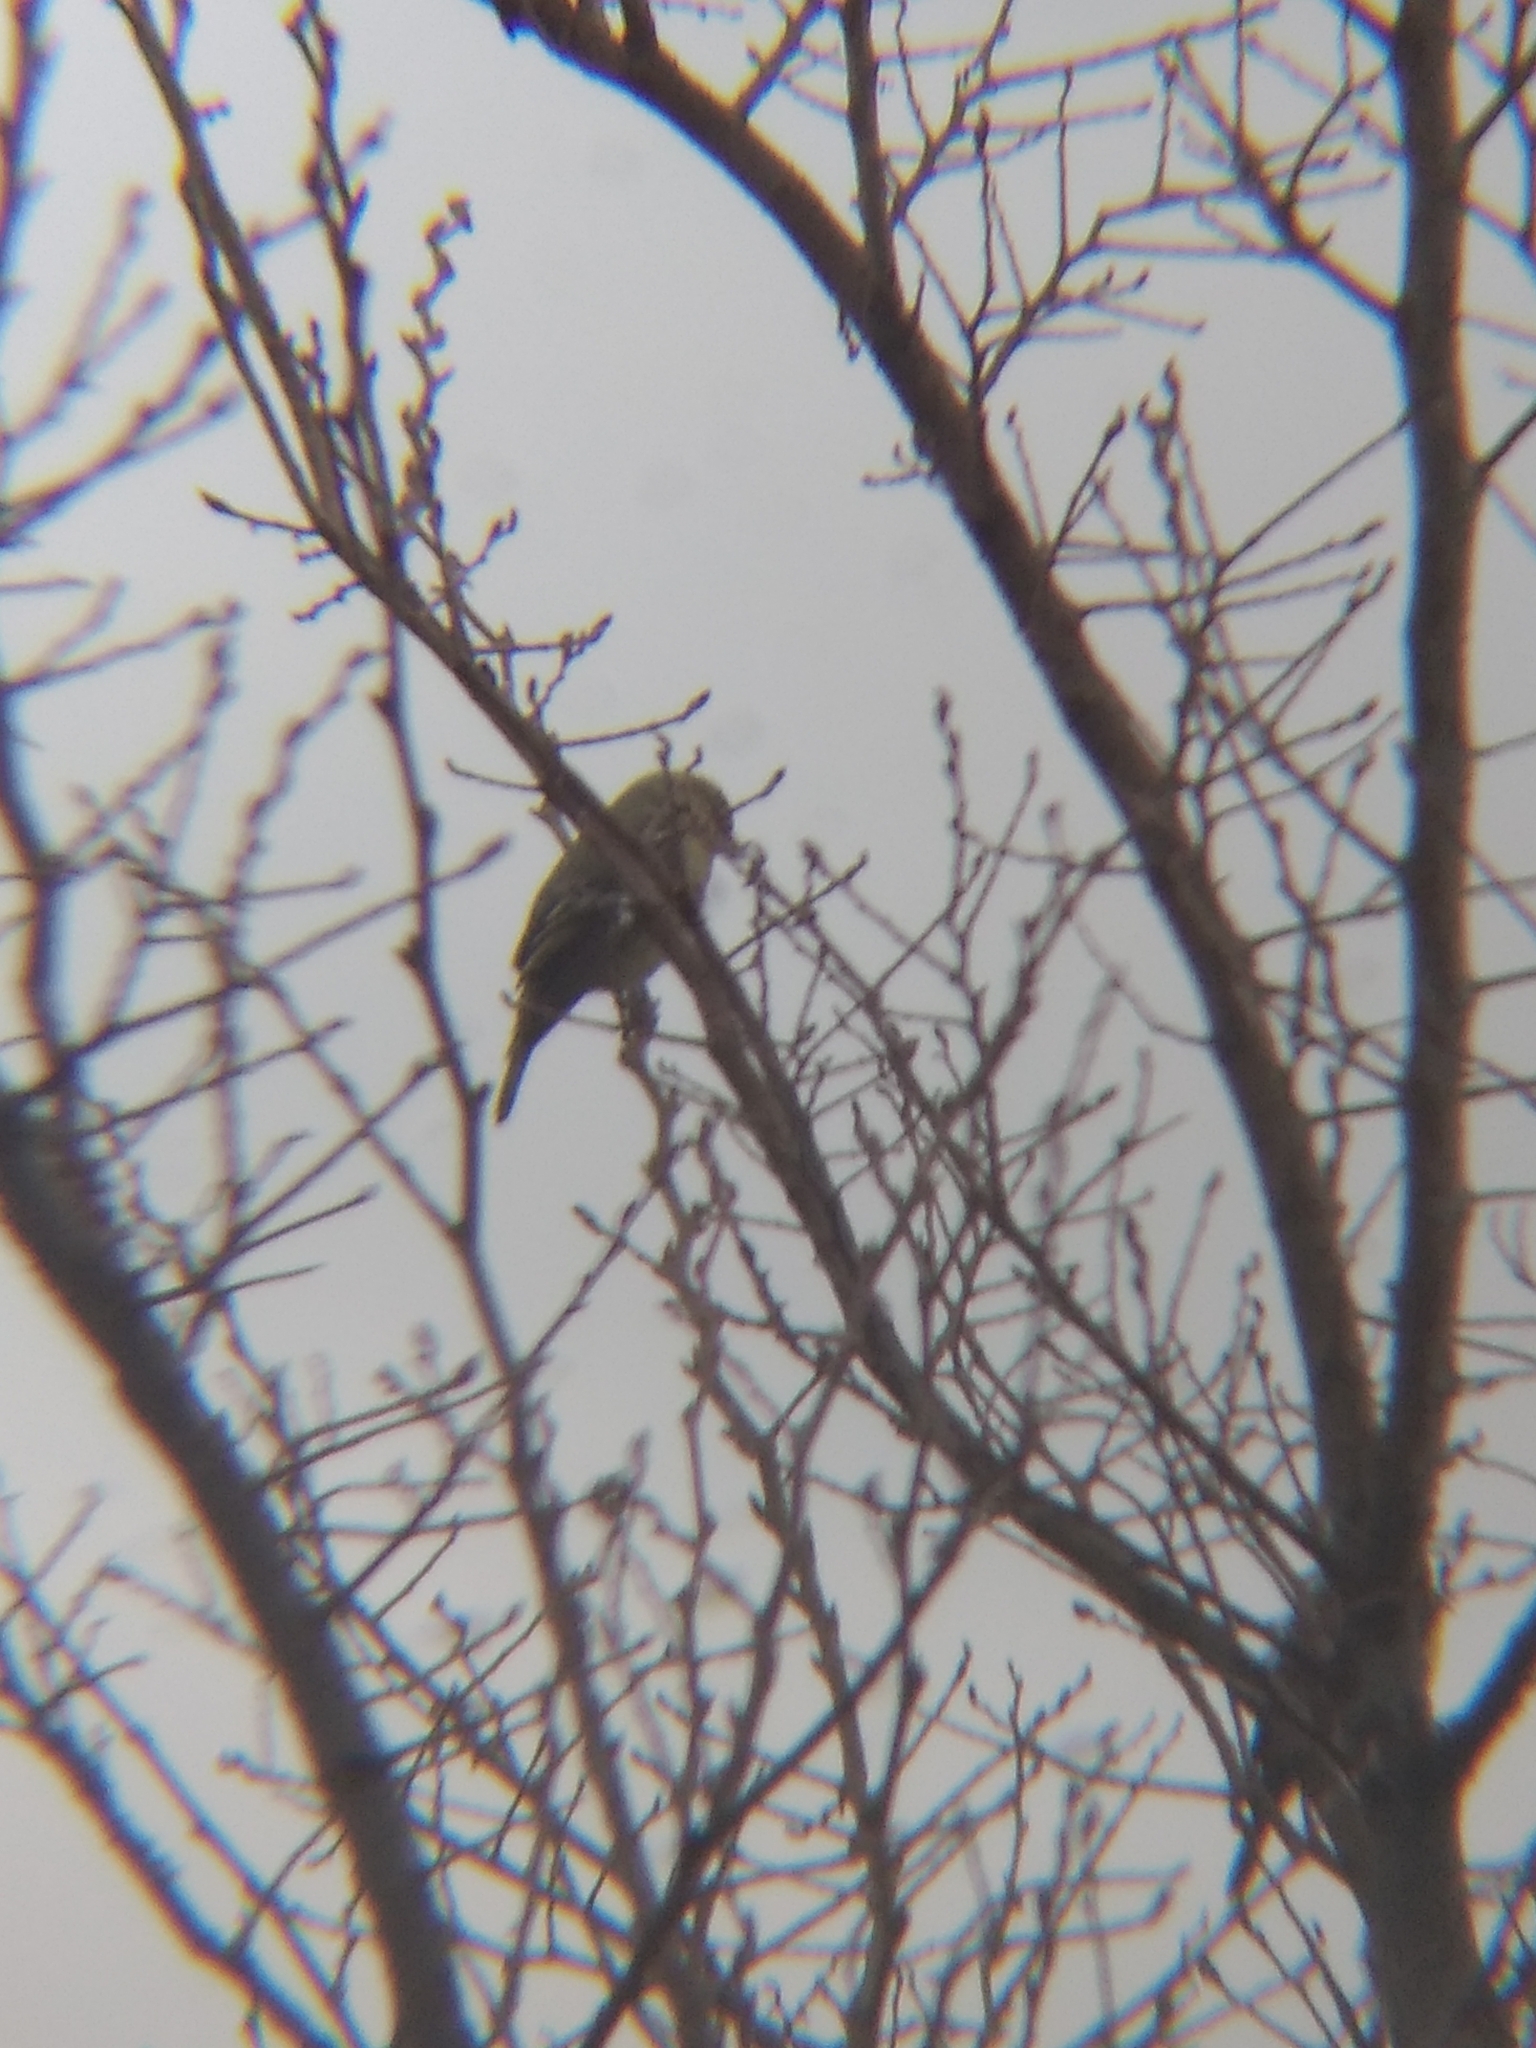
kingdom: Animalia
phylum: Chordata
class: Aves
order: Passeriformes
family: Fringillidae
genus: Spinus
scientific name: Spinus psaltria
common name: Lesser goldfinch
